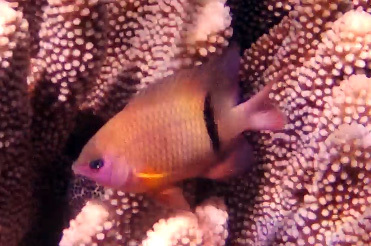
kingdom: Animalia
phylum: Chordata
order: Perciformes
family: Pomacentridae
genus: Plectroglyphidodon
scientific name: Plectroglyphidodon dickii
